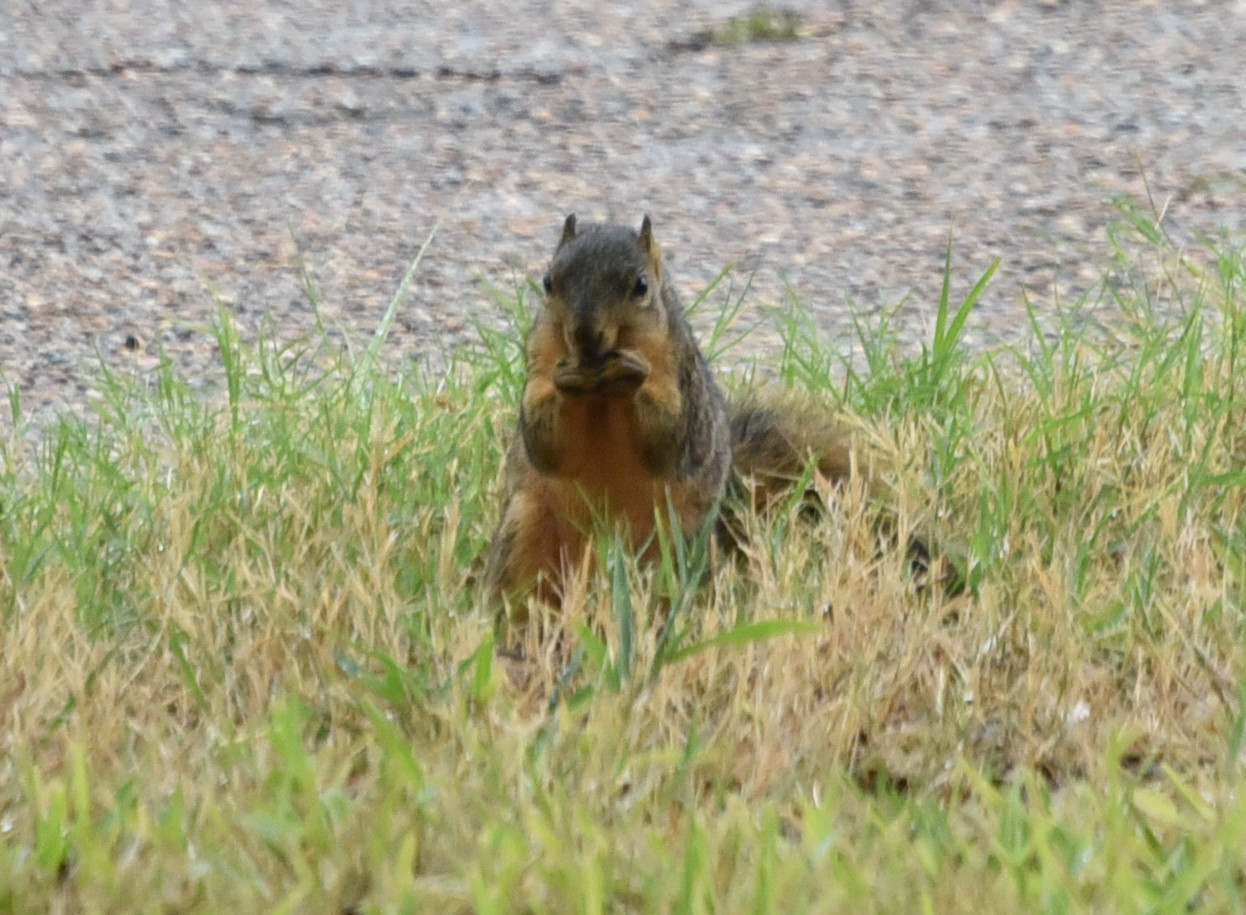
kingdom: Animalia
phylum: Chordata
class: Mammalia
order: Rodentia
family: Sciuridae
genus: Sciurus
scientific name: Sciurus niger
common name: Fox squirrel
